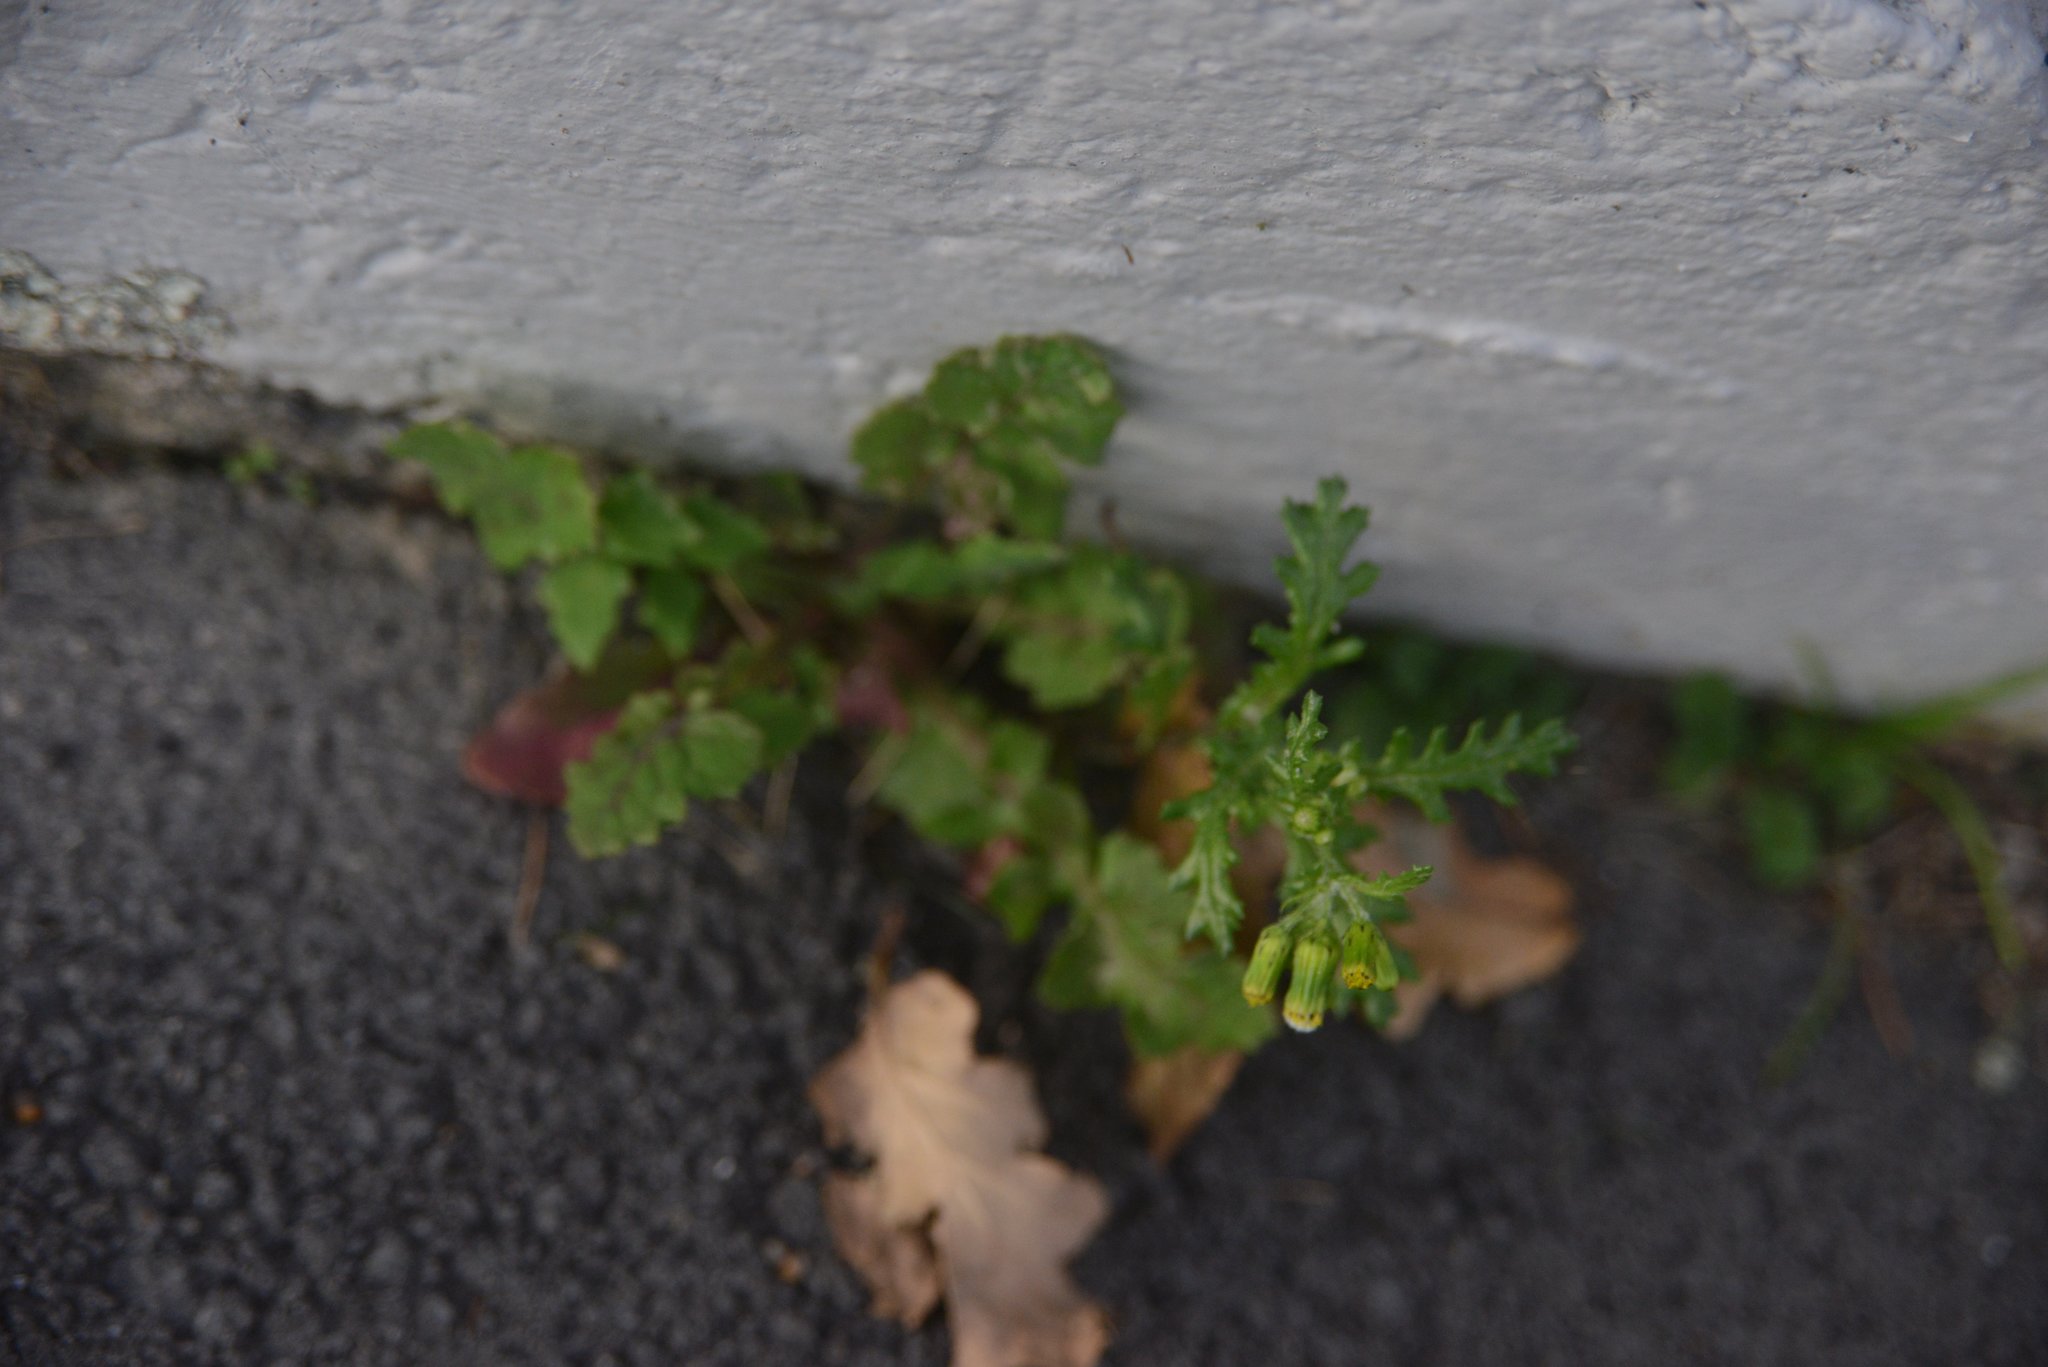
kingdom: Plantae
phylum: Tracheophyta
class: Magnoliopsida
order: Asterales
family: Asteraceae
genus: Senecio
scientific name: Senecio vulgaris
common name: Old-man-in-the-spring
